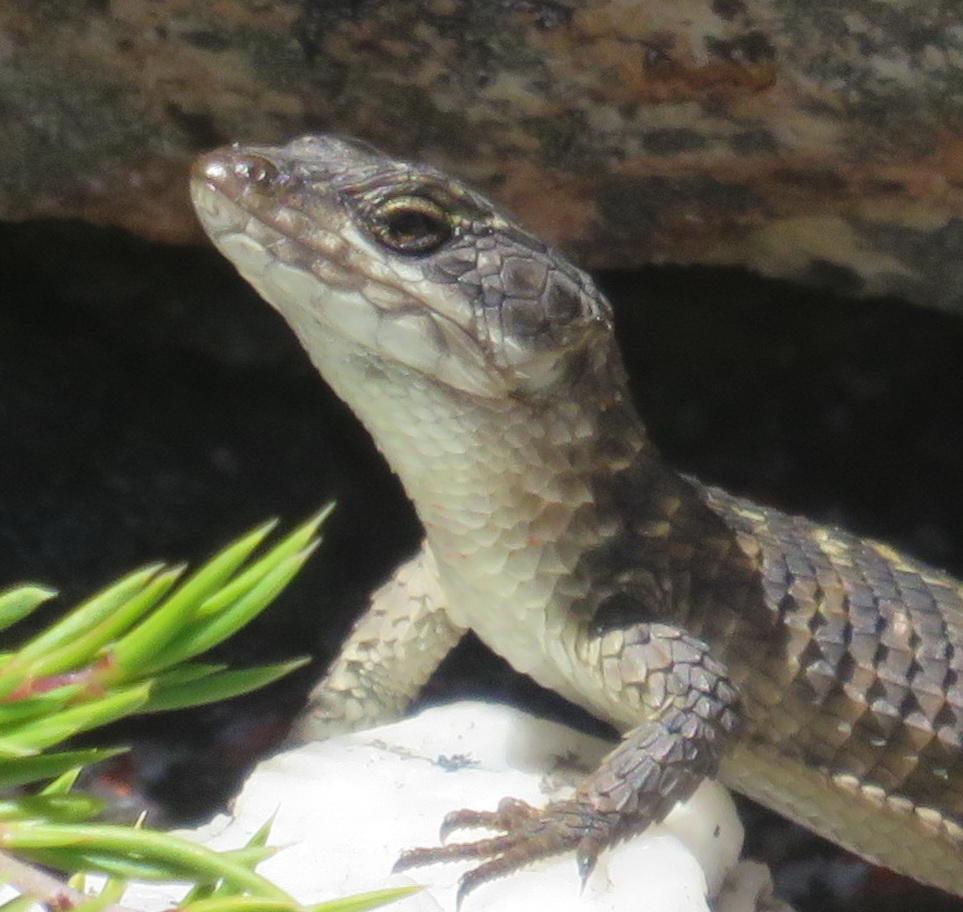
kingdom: Animalia
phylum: Chordata
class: Squamata
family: Cordylidae
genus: Cordylus
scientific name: Cordylus cordylus
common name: Cape girdled lizard
